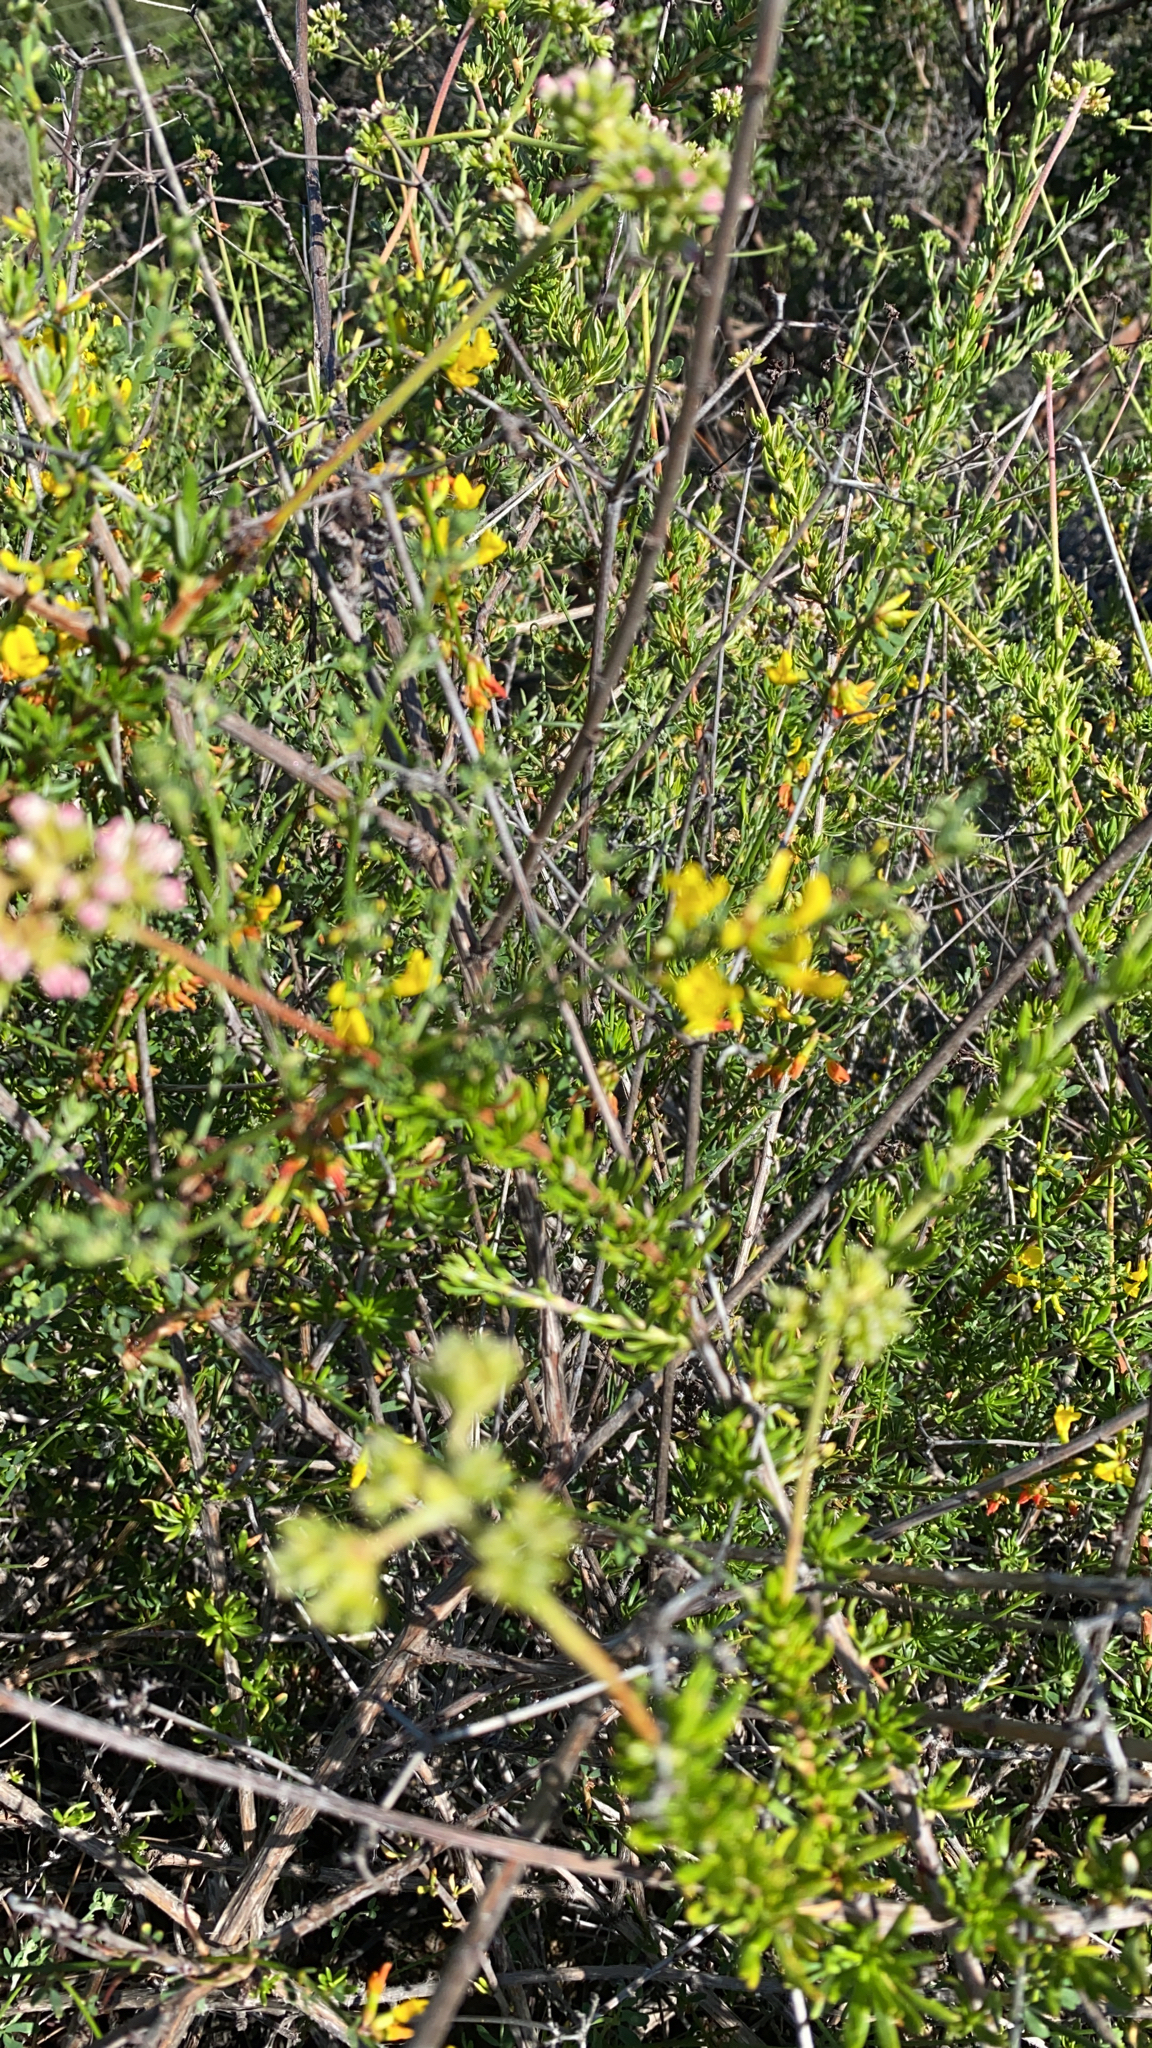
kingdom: Plantae
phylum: Tracheophyta
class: Magnoliopsida
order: Fabales
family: Fabaceae
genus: Acmispon
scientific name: Acmispon glaber
